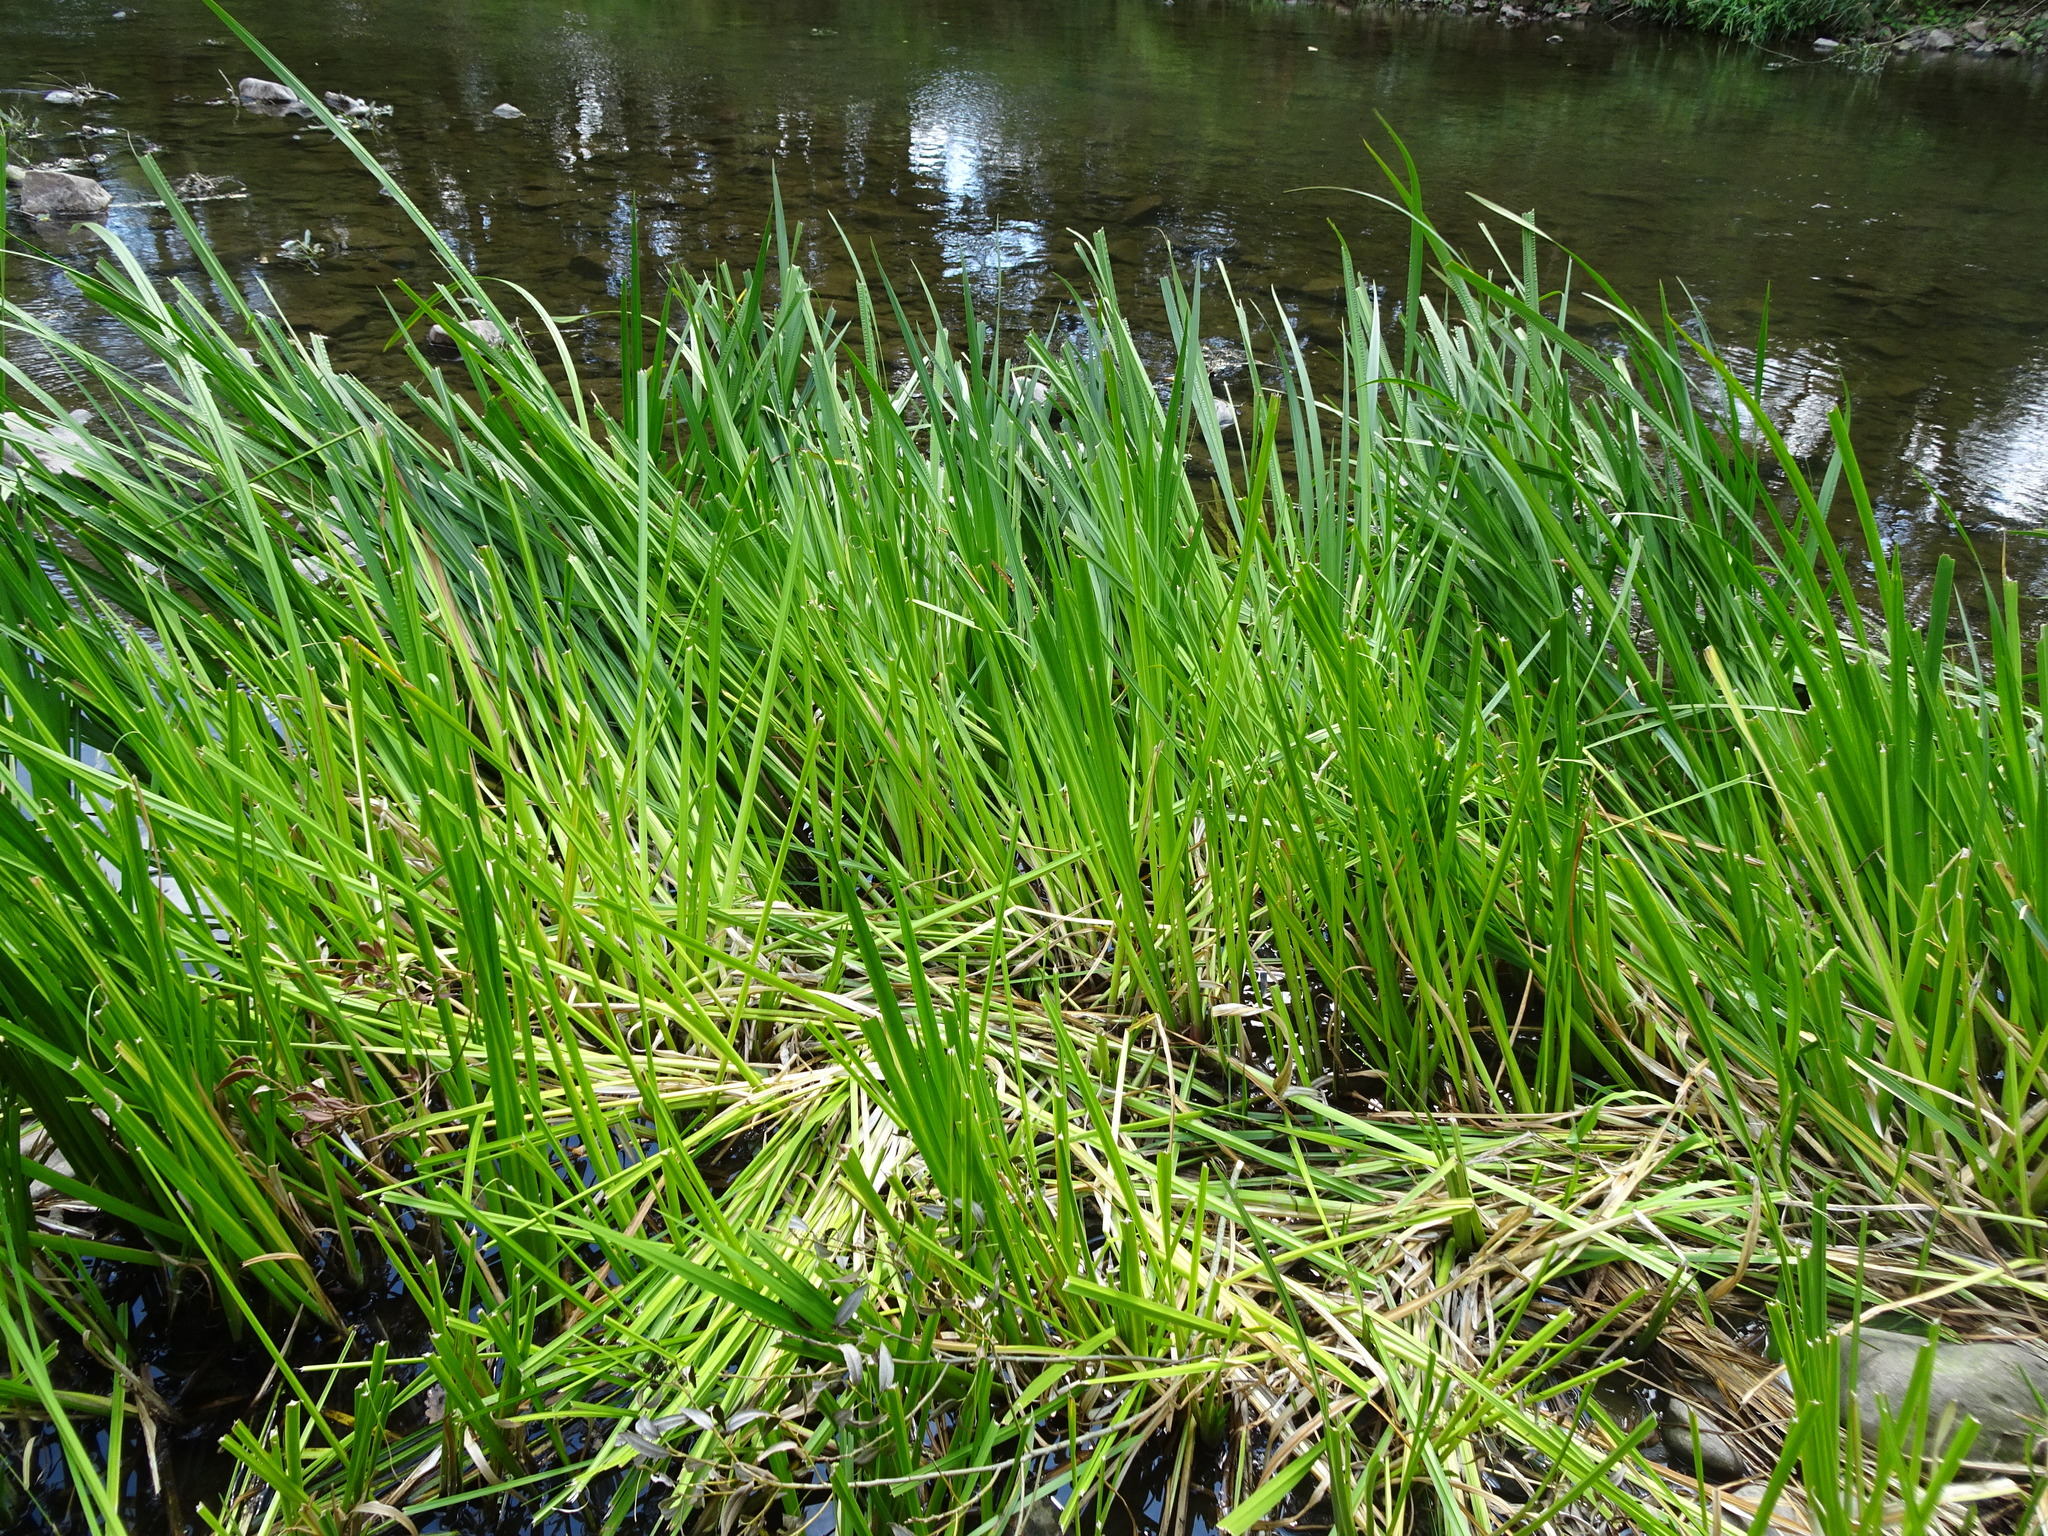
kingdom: Plantae
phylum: Tracheophyta
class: Liliopsida
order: Acorales
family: Acoraceae
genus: Acorus
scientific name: Acorus calamus
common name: Sweet-flag
